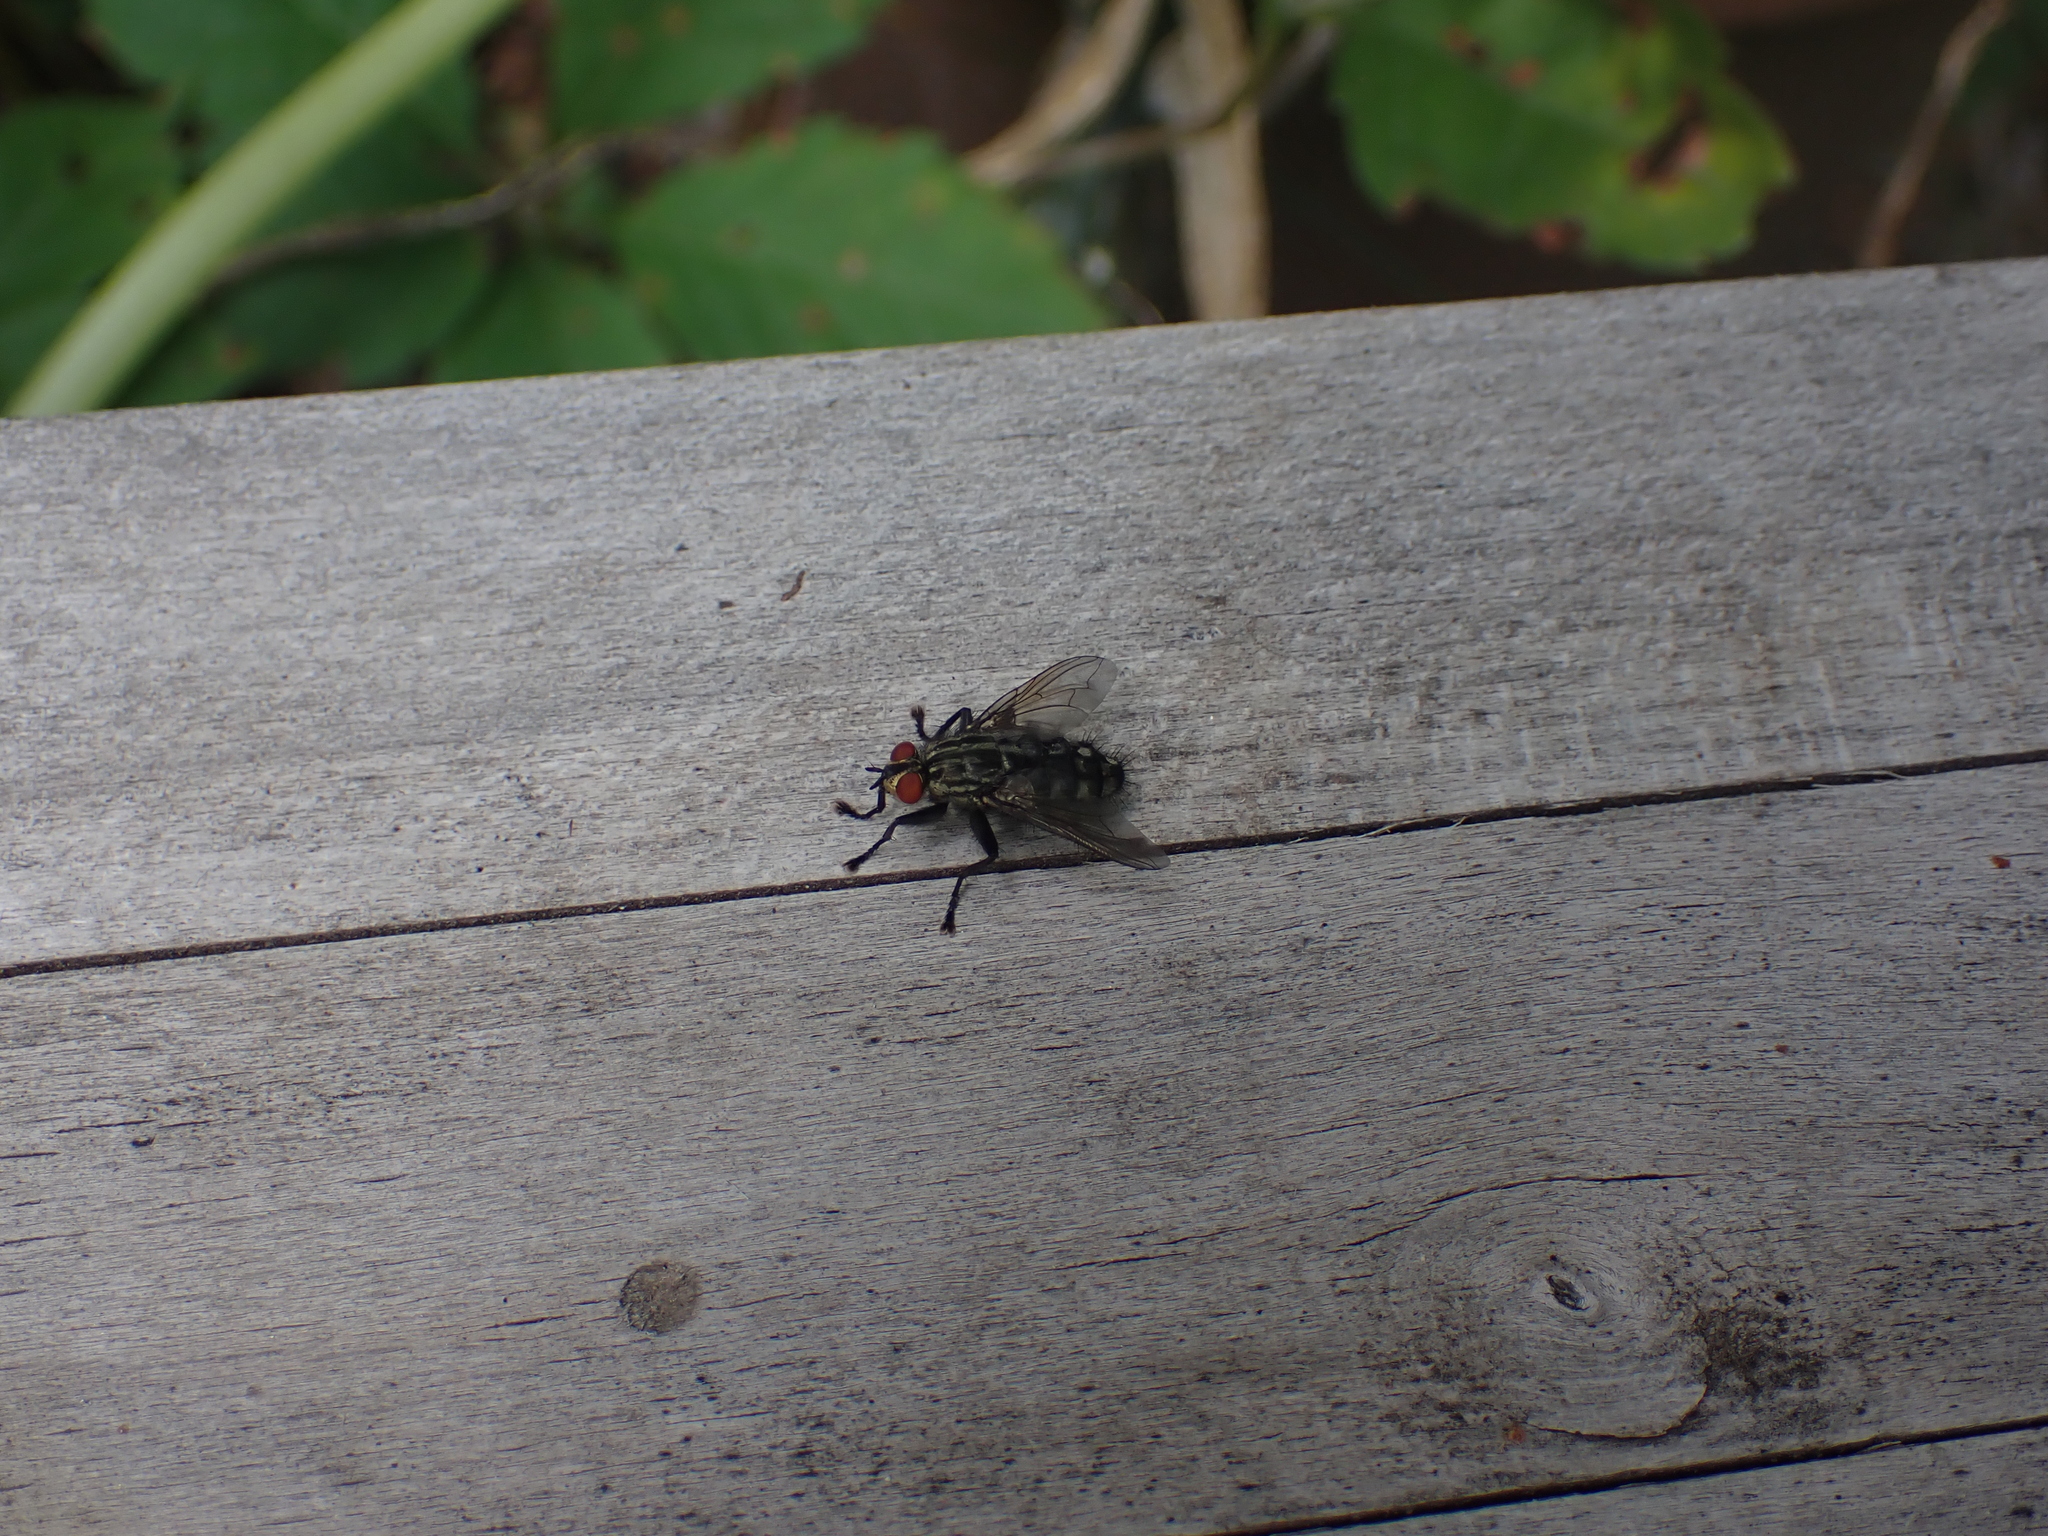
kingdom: Animalia
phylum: Arthropoda
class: Insecta
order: Diptera
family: Sarcophagidae
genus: Sarcophaga
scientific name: Sarcophaga carnaria
